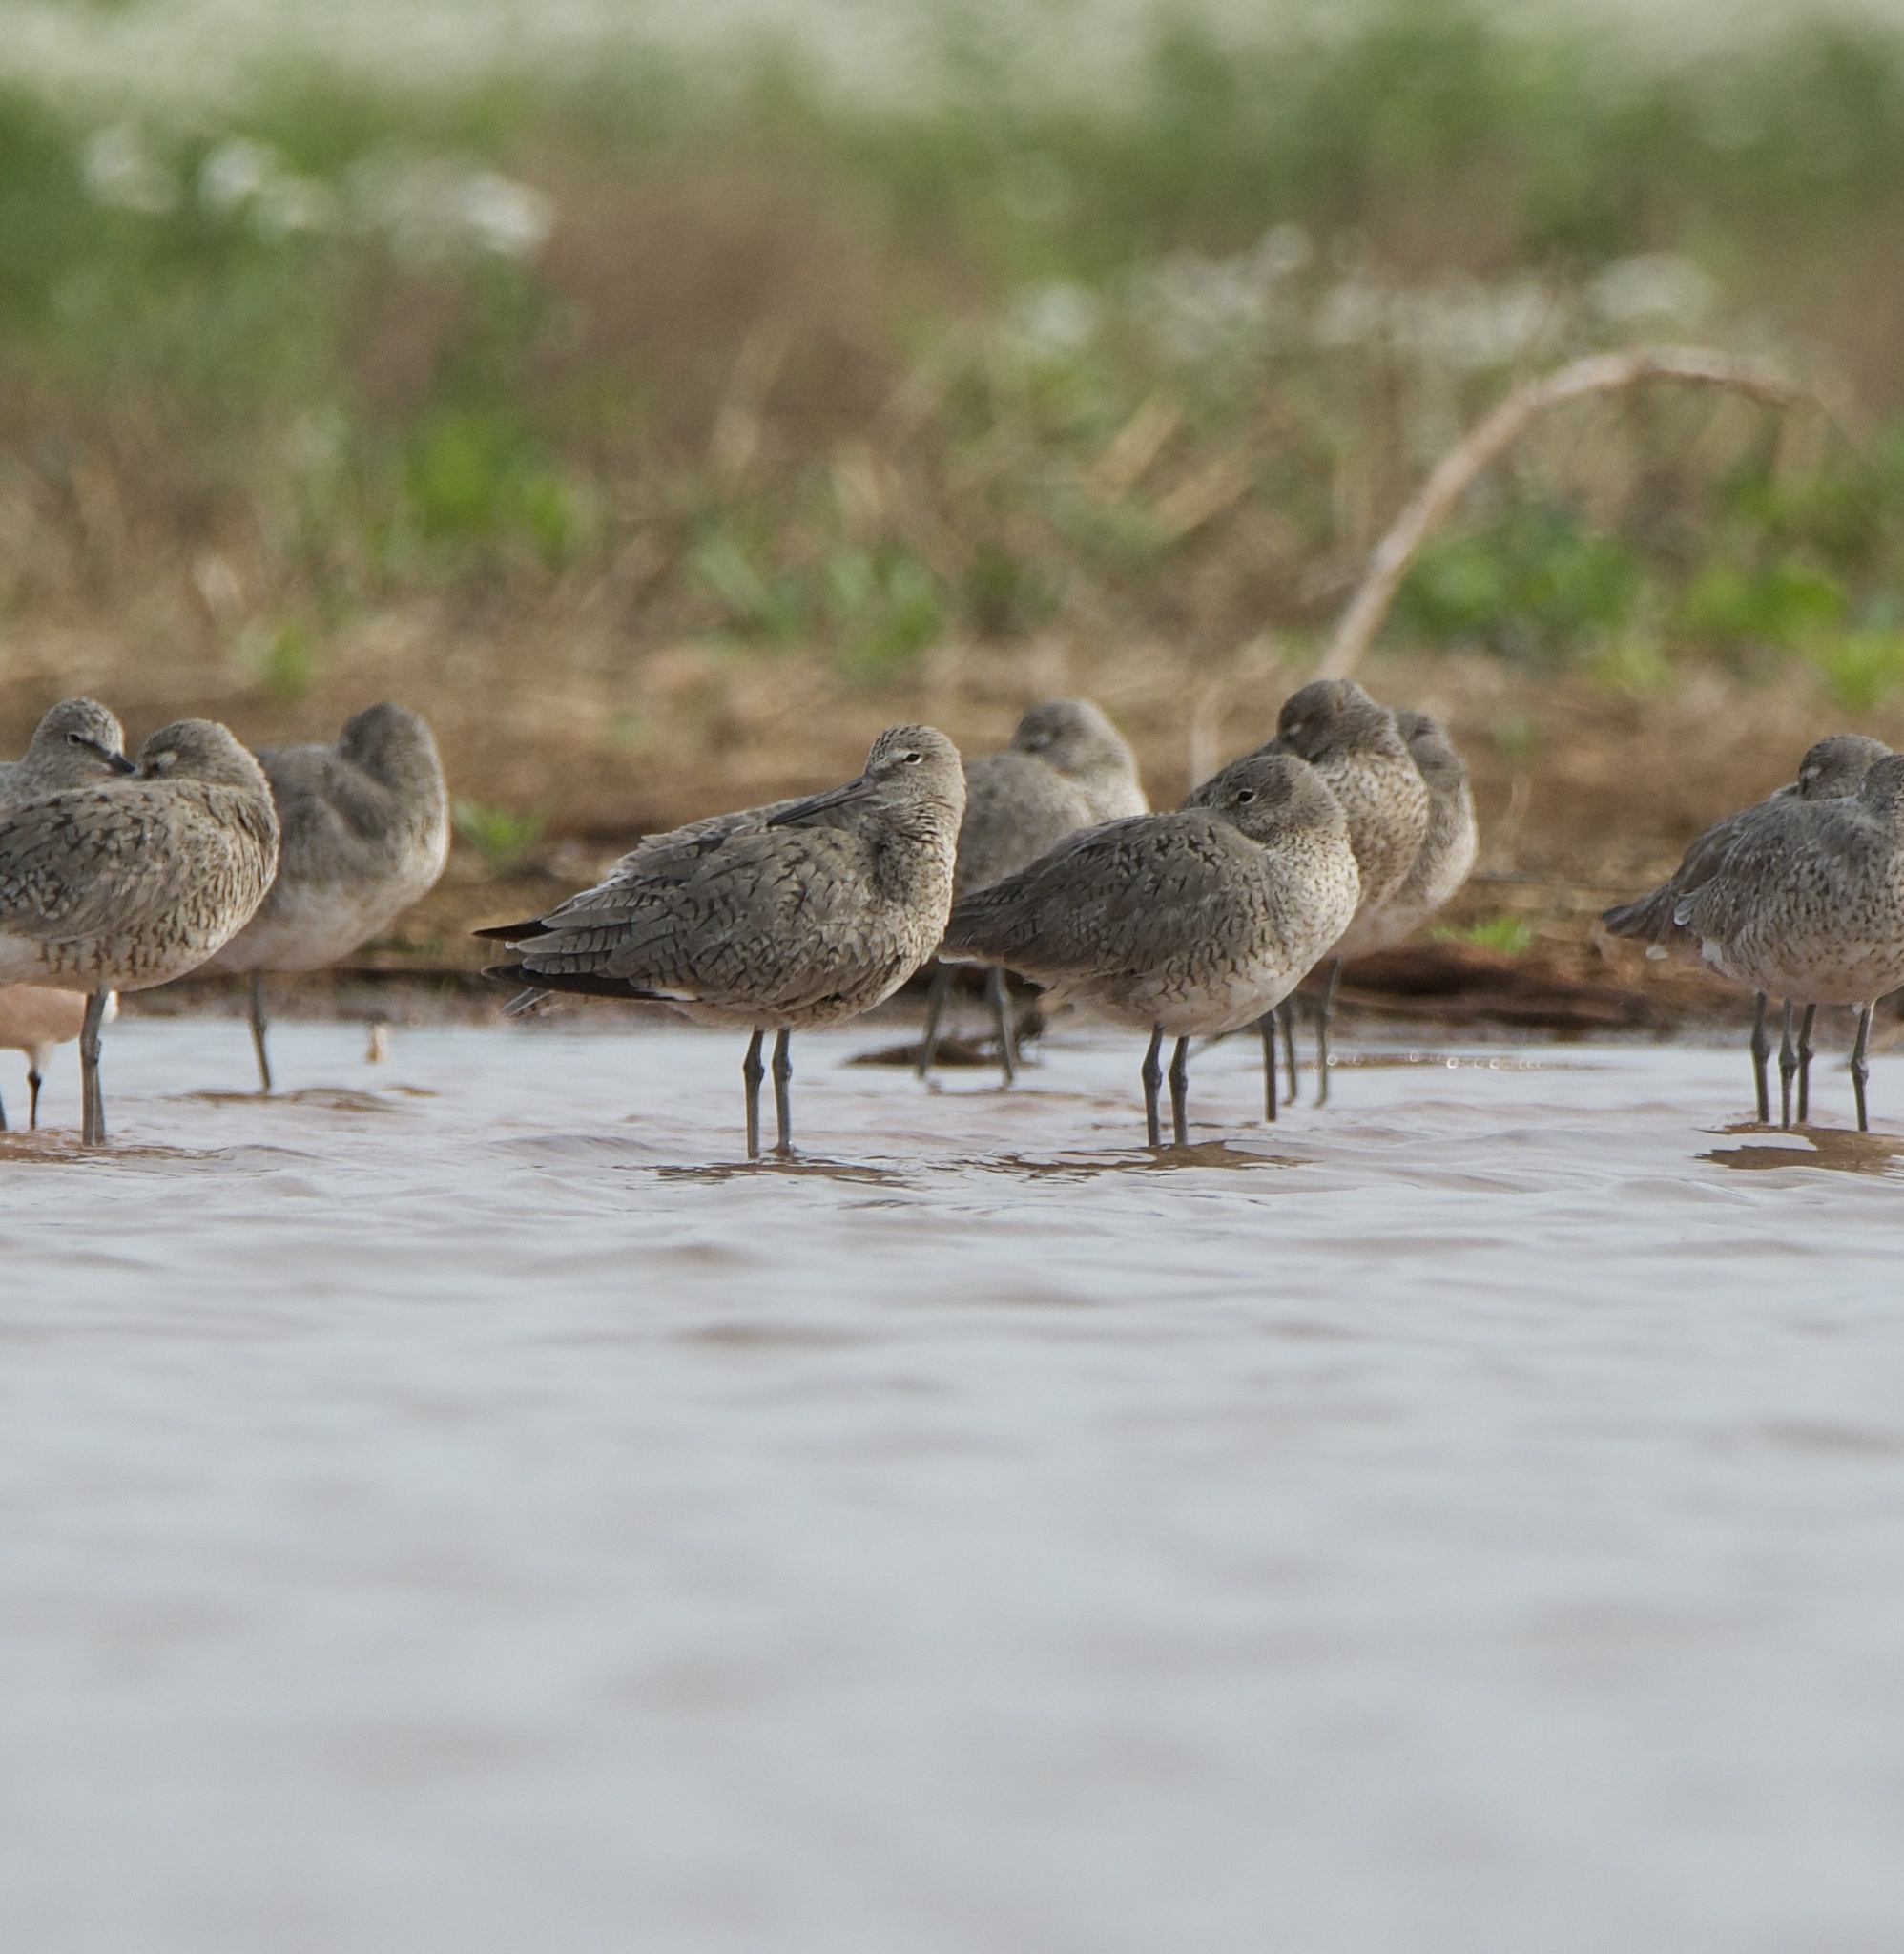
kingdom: Animalia
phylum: Chordata
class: Aves
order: Charadriiformes
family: Scolopacidae
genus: Tringa
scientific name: Tringa semipalmata
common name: Willet
